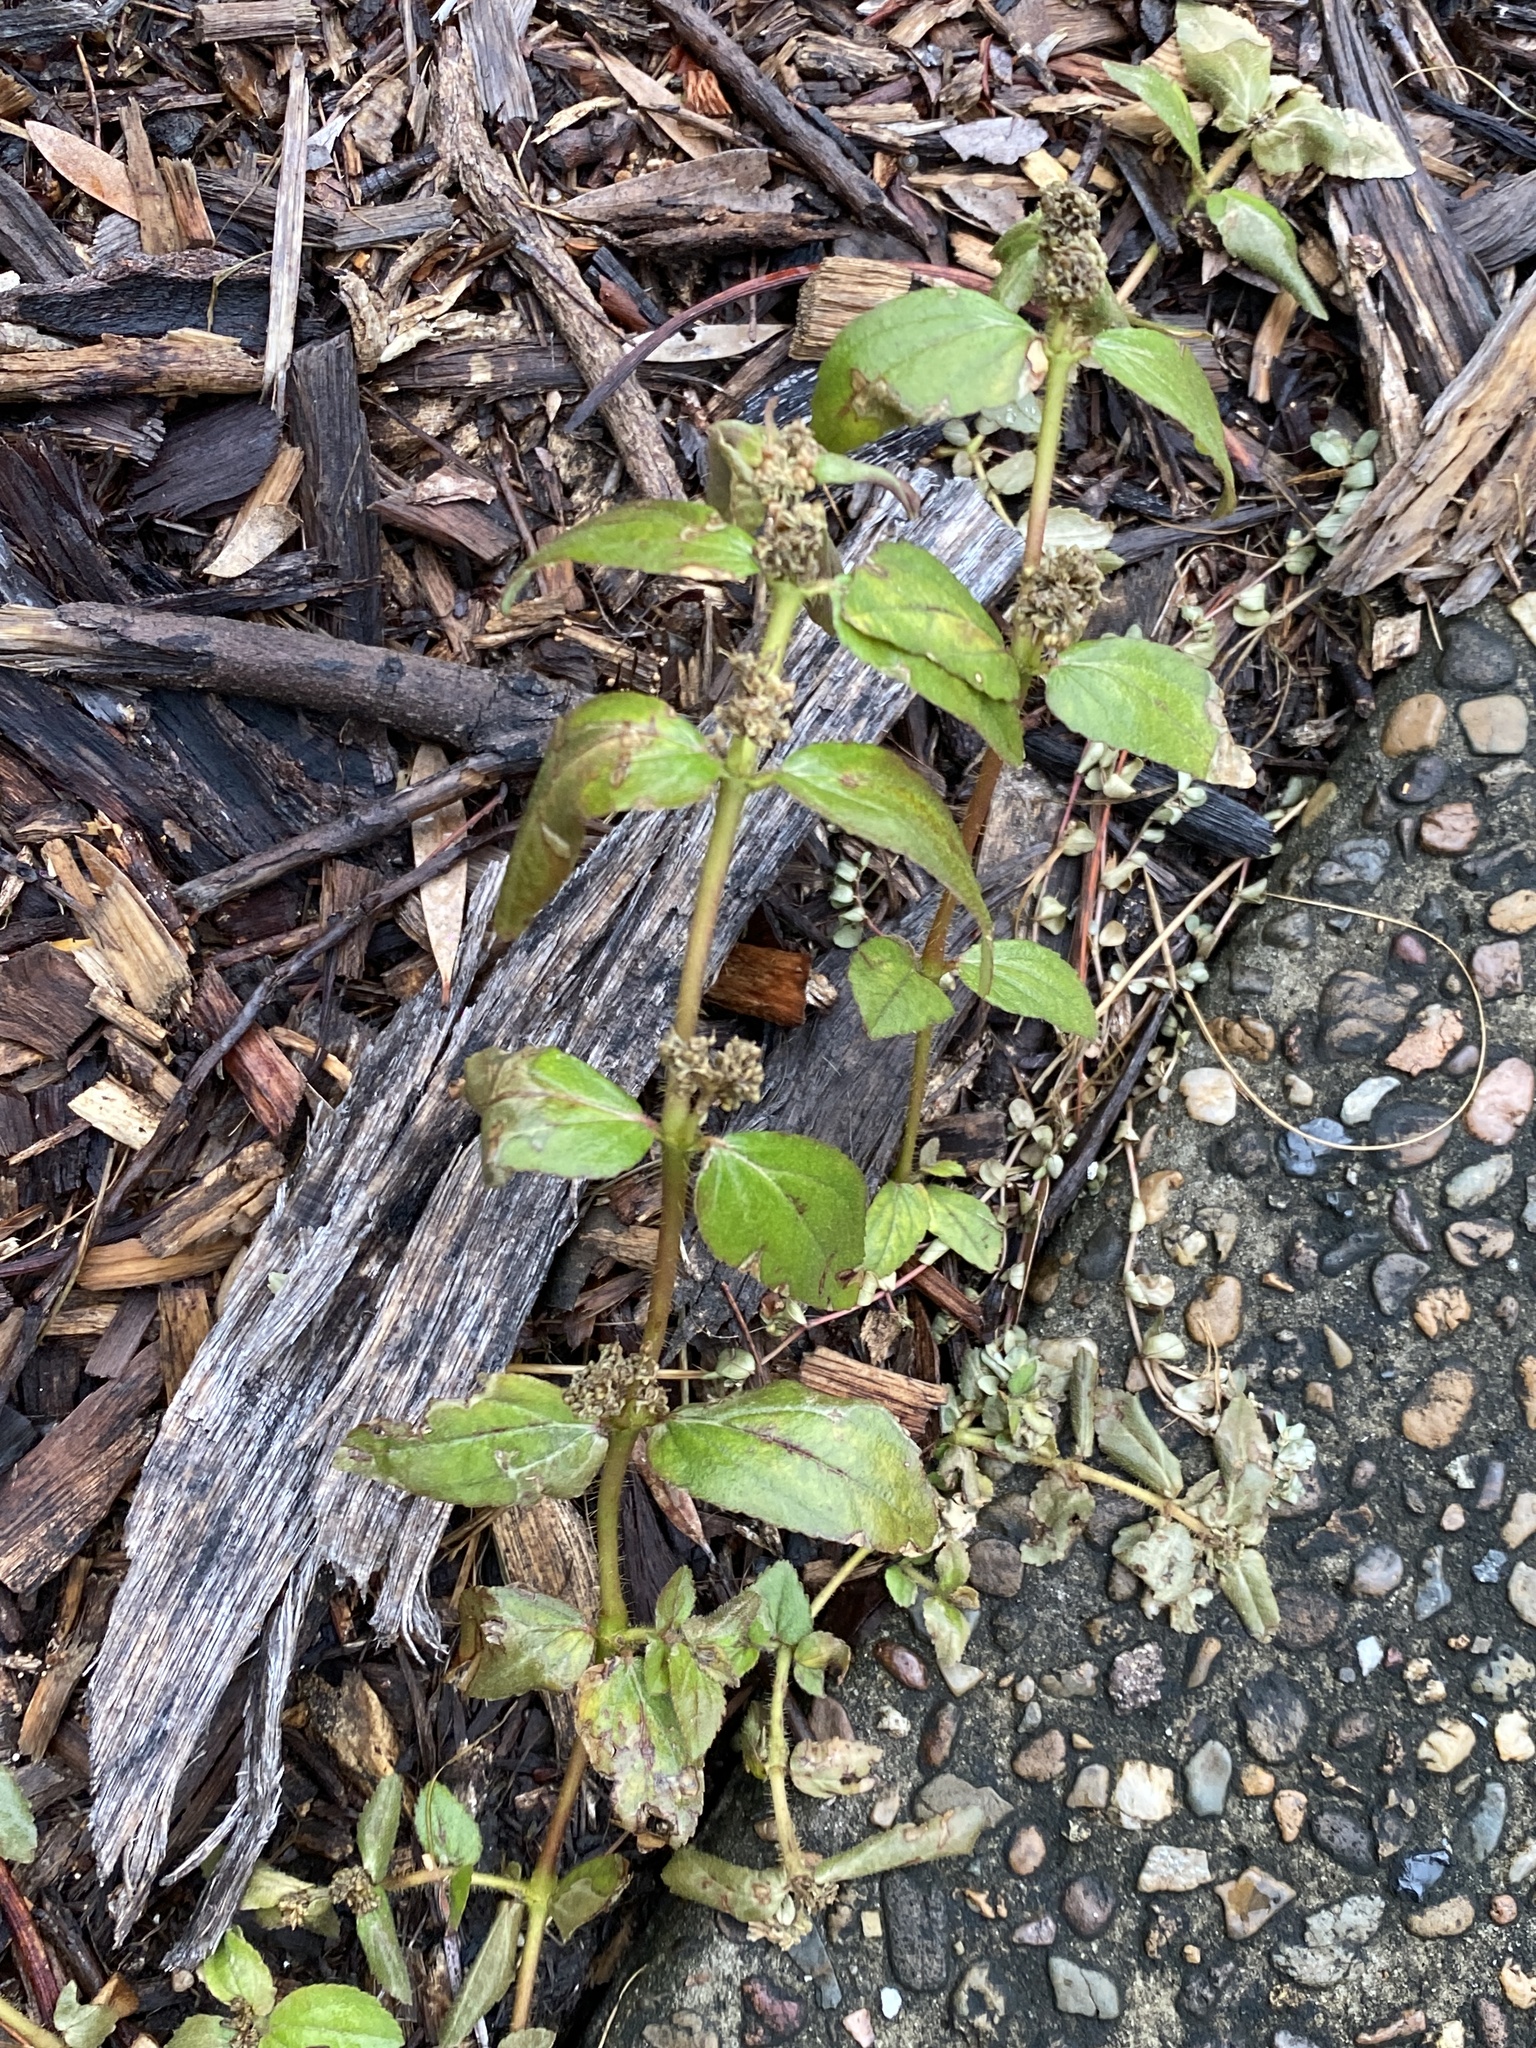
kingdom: Plantae
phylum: Tracheophyta
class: Magnoliopsida
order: Malpighiales
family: Euphorbiaceae
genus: Euphorbia
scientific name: Euphorbia hirta
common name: Pillpod sandmat
